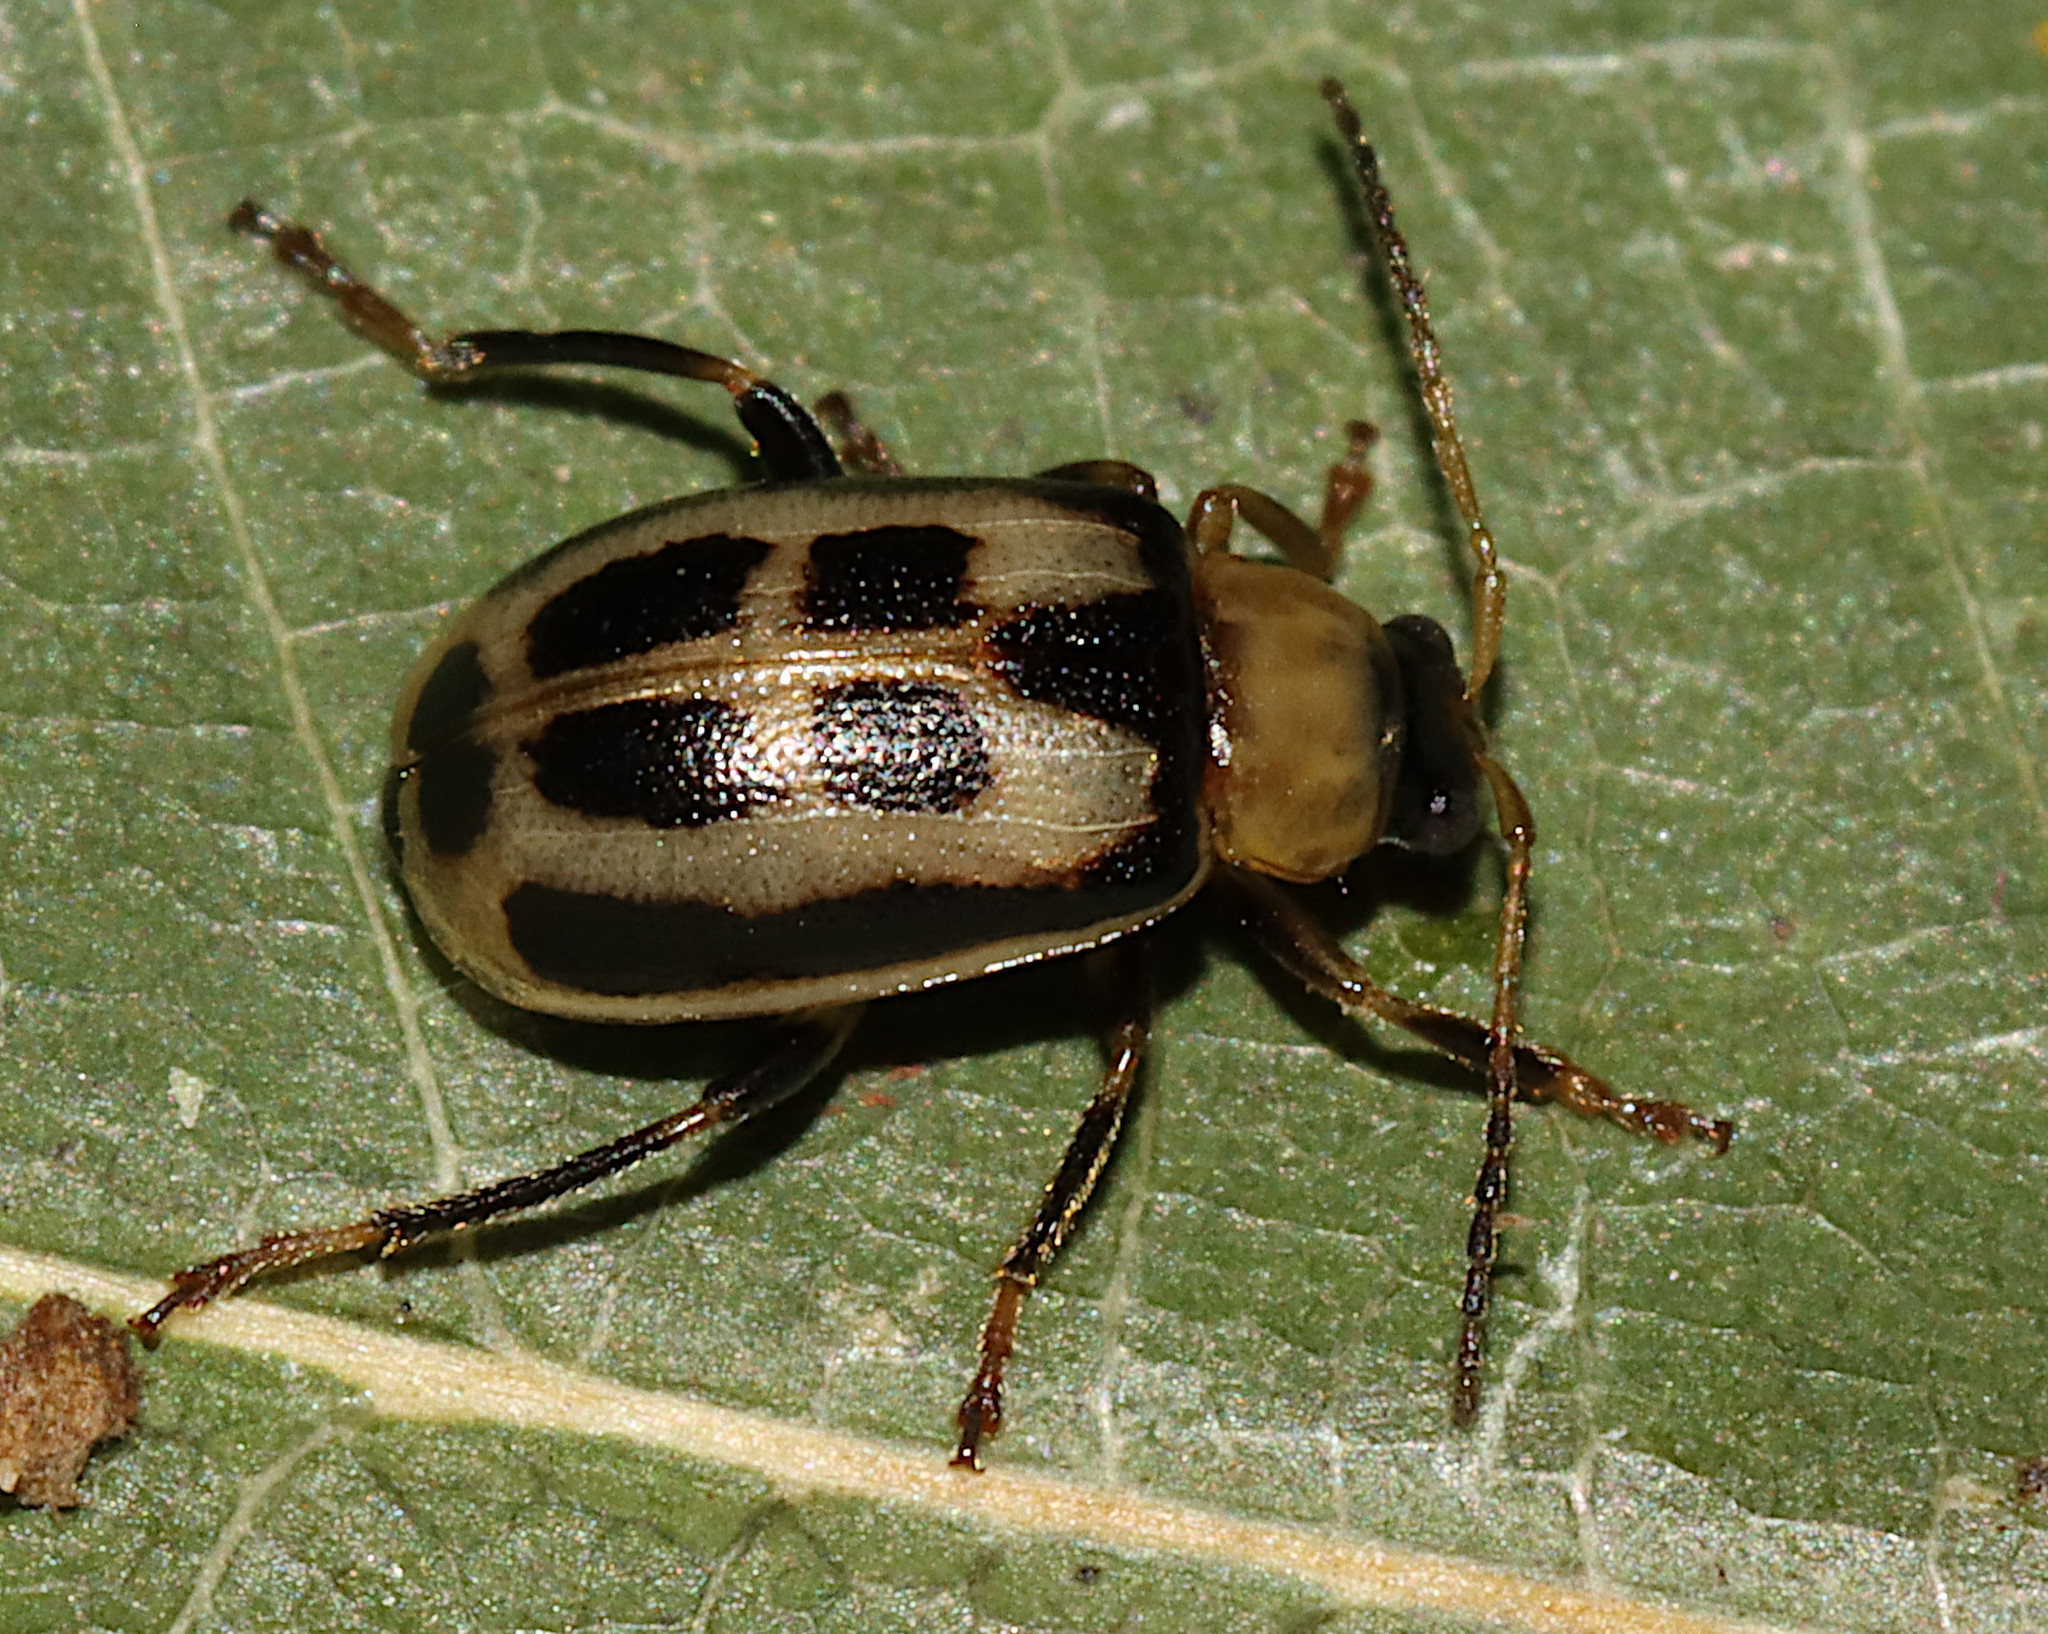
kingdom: Animalia
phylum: Arthropoda
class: Insecta
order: Coleoptera
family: Chrysomelidae
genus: Cerotoma
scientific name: Cerotoma trifurcata
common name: Bean leaf beetle
